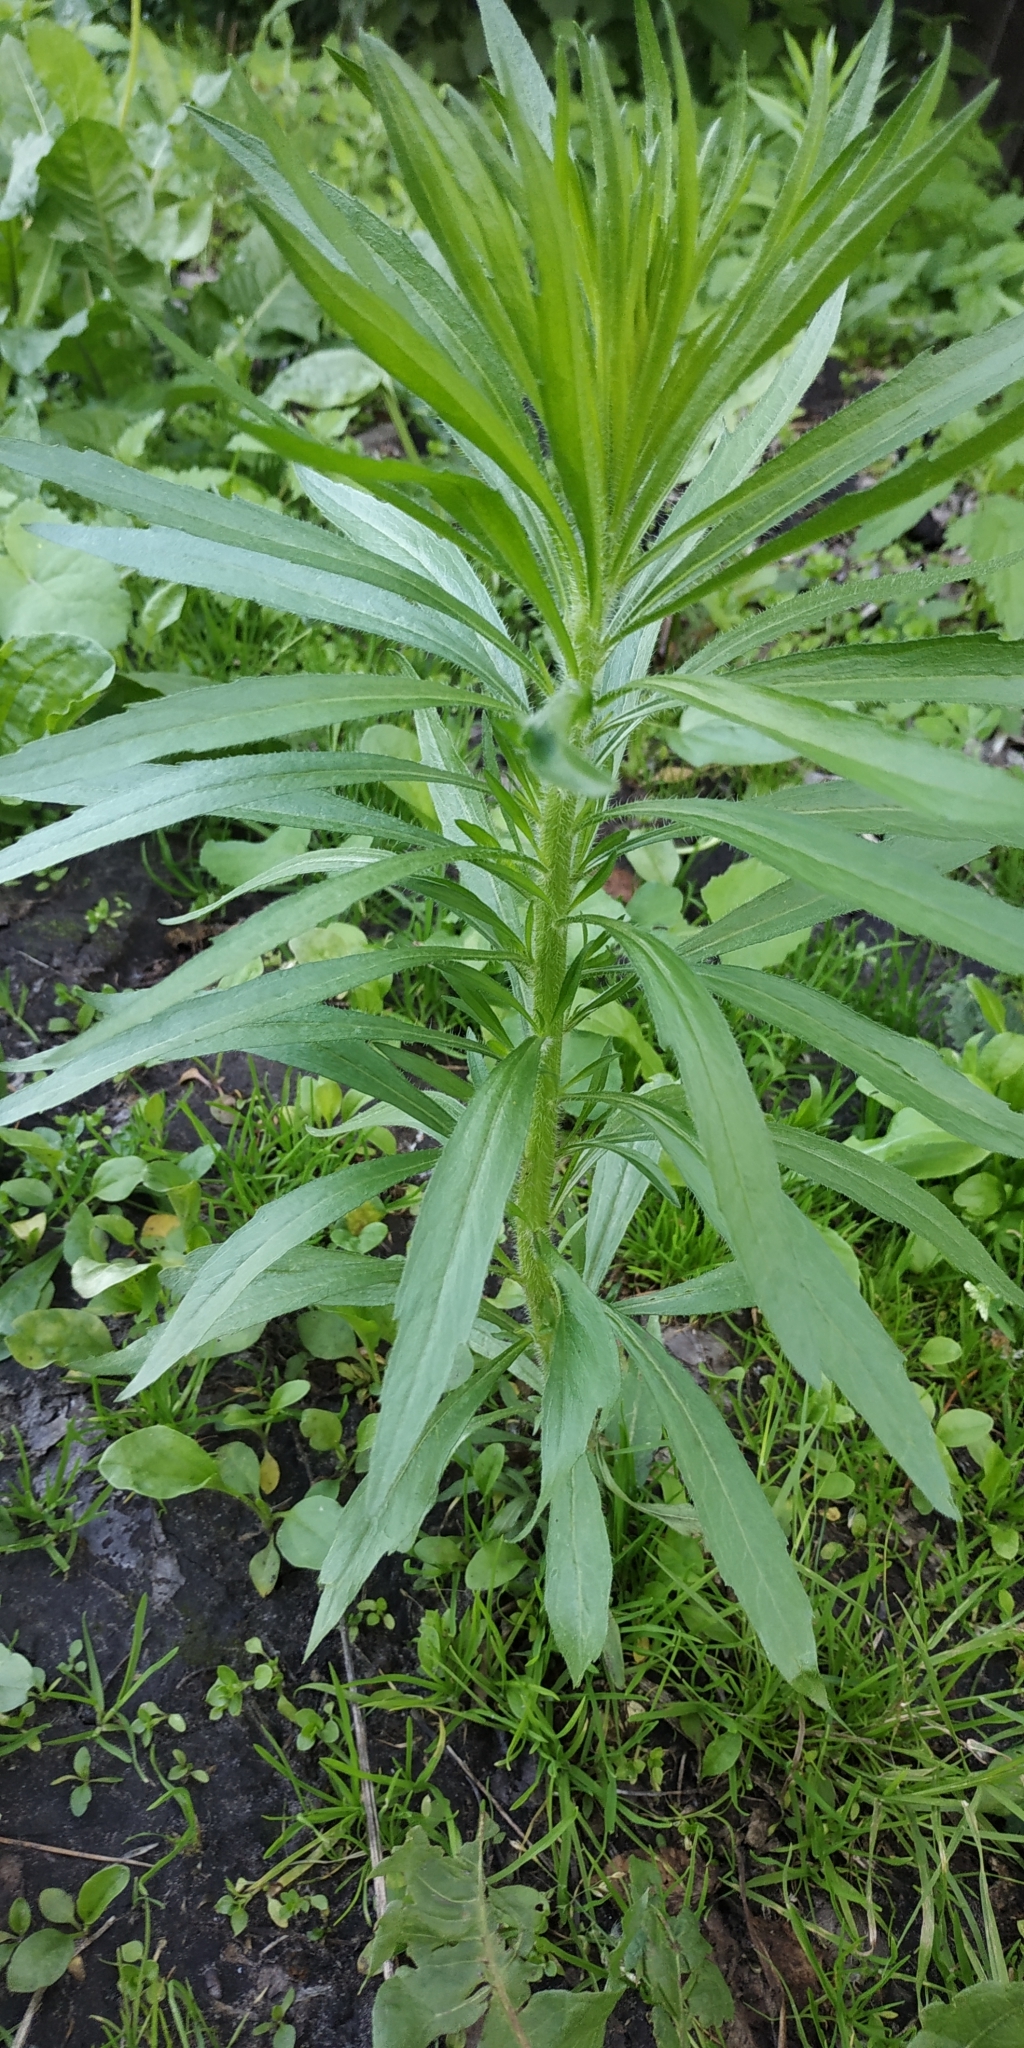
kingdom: Plantae
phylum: Tracheophyta
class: Magnoliopsida
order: Asterales
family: Asteraceae
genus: Erigeron
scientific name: Erigeron canadensis
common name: Canadian fleabane
